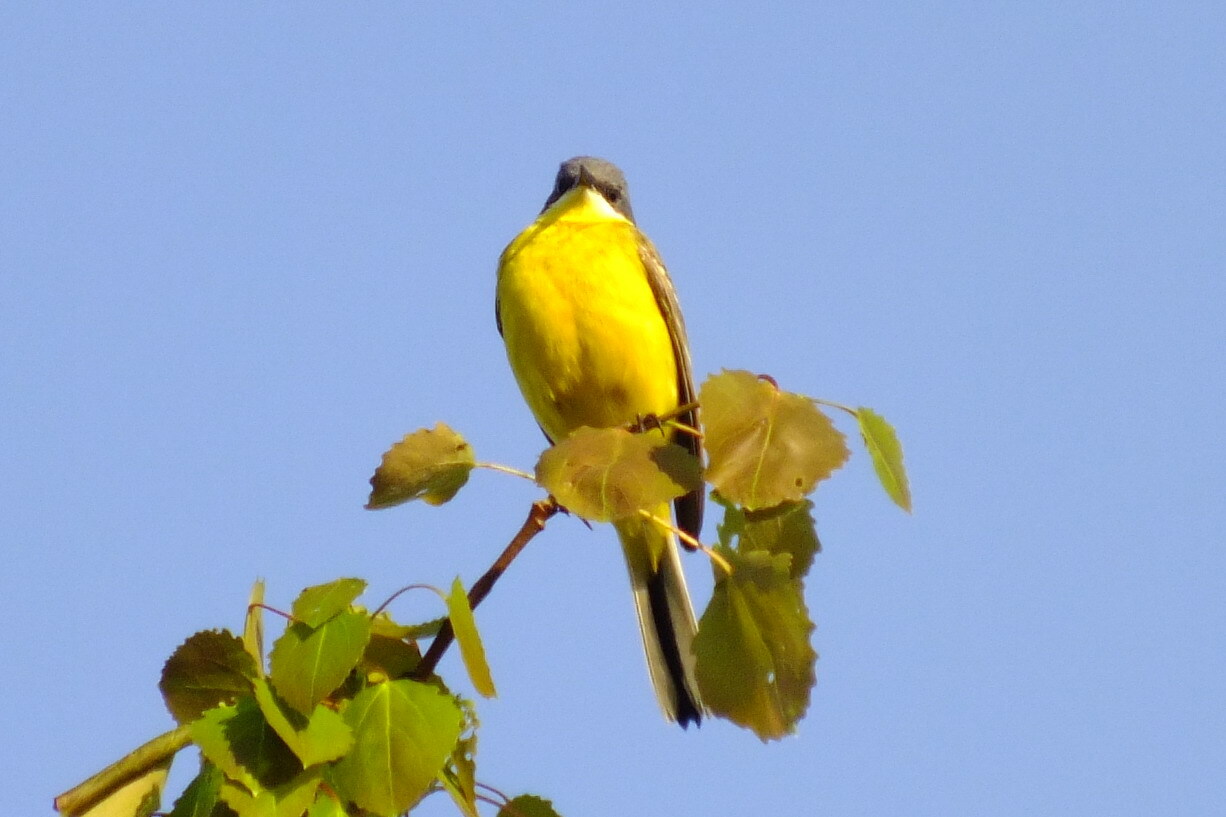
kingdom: Animalia
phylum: Chordata
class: Aves
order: Passeriformes
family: Motacillidae
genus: Motacilla
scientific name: Motacilla flava
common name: Western yellow wagtail
